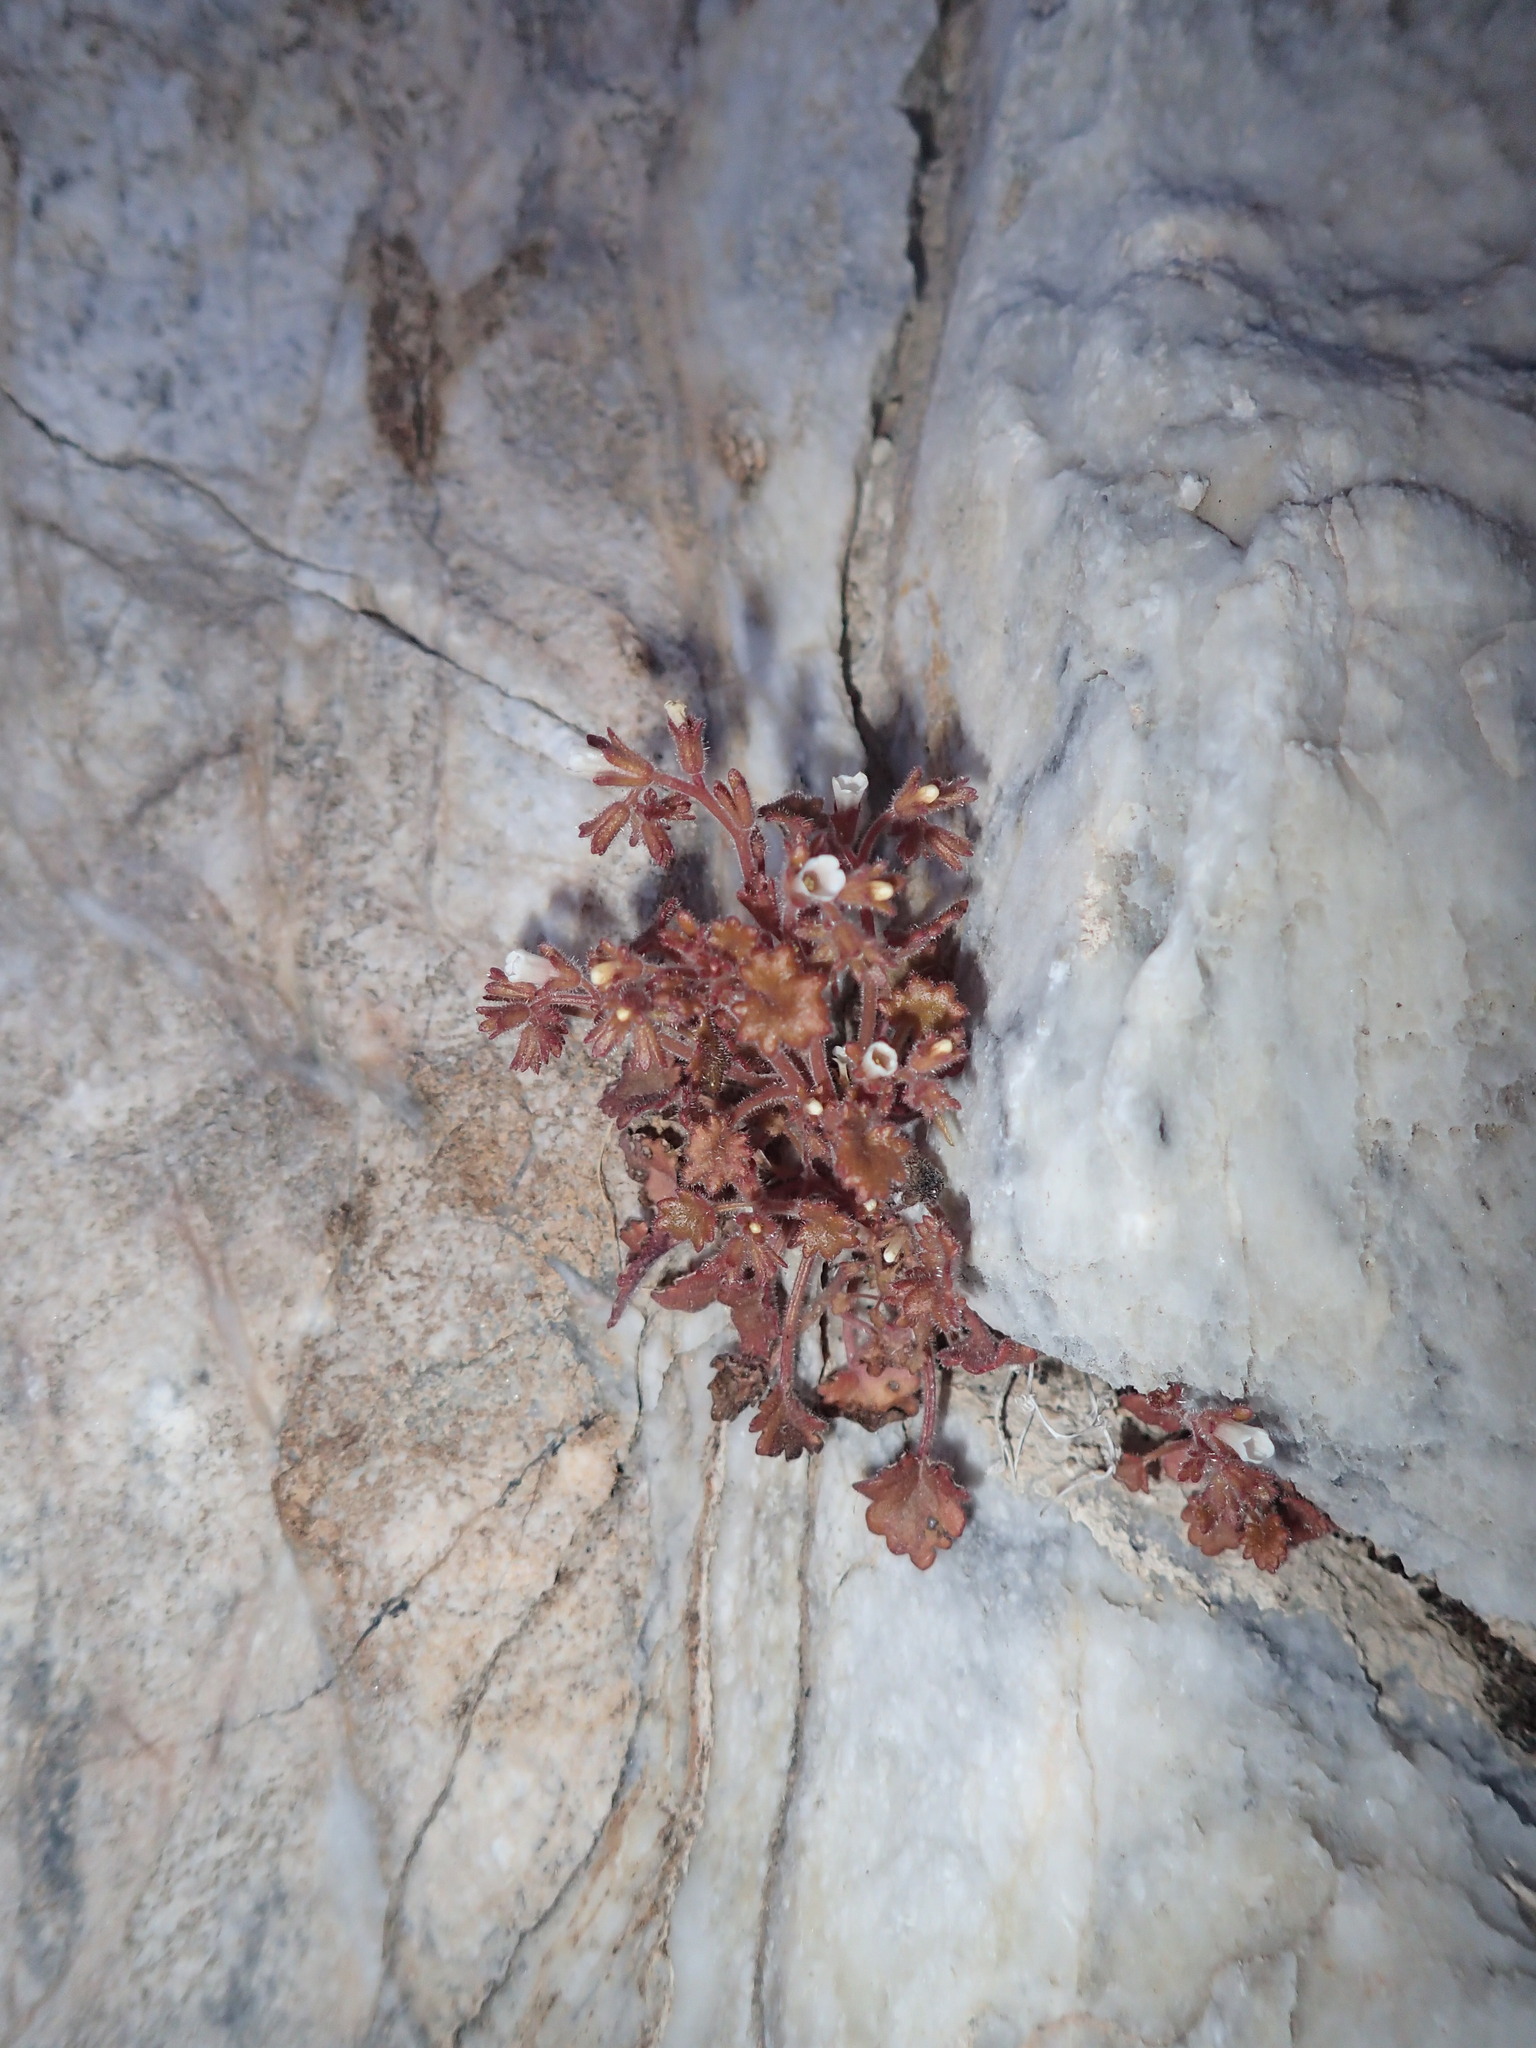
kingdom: Plantae
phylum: Tracheophyta
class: Magnoliopsida
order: Boraginales
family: Hydrophyllaceae
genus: Phacelia
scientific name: Phacelia rotundifolia
